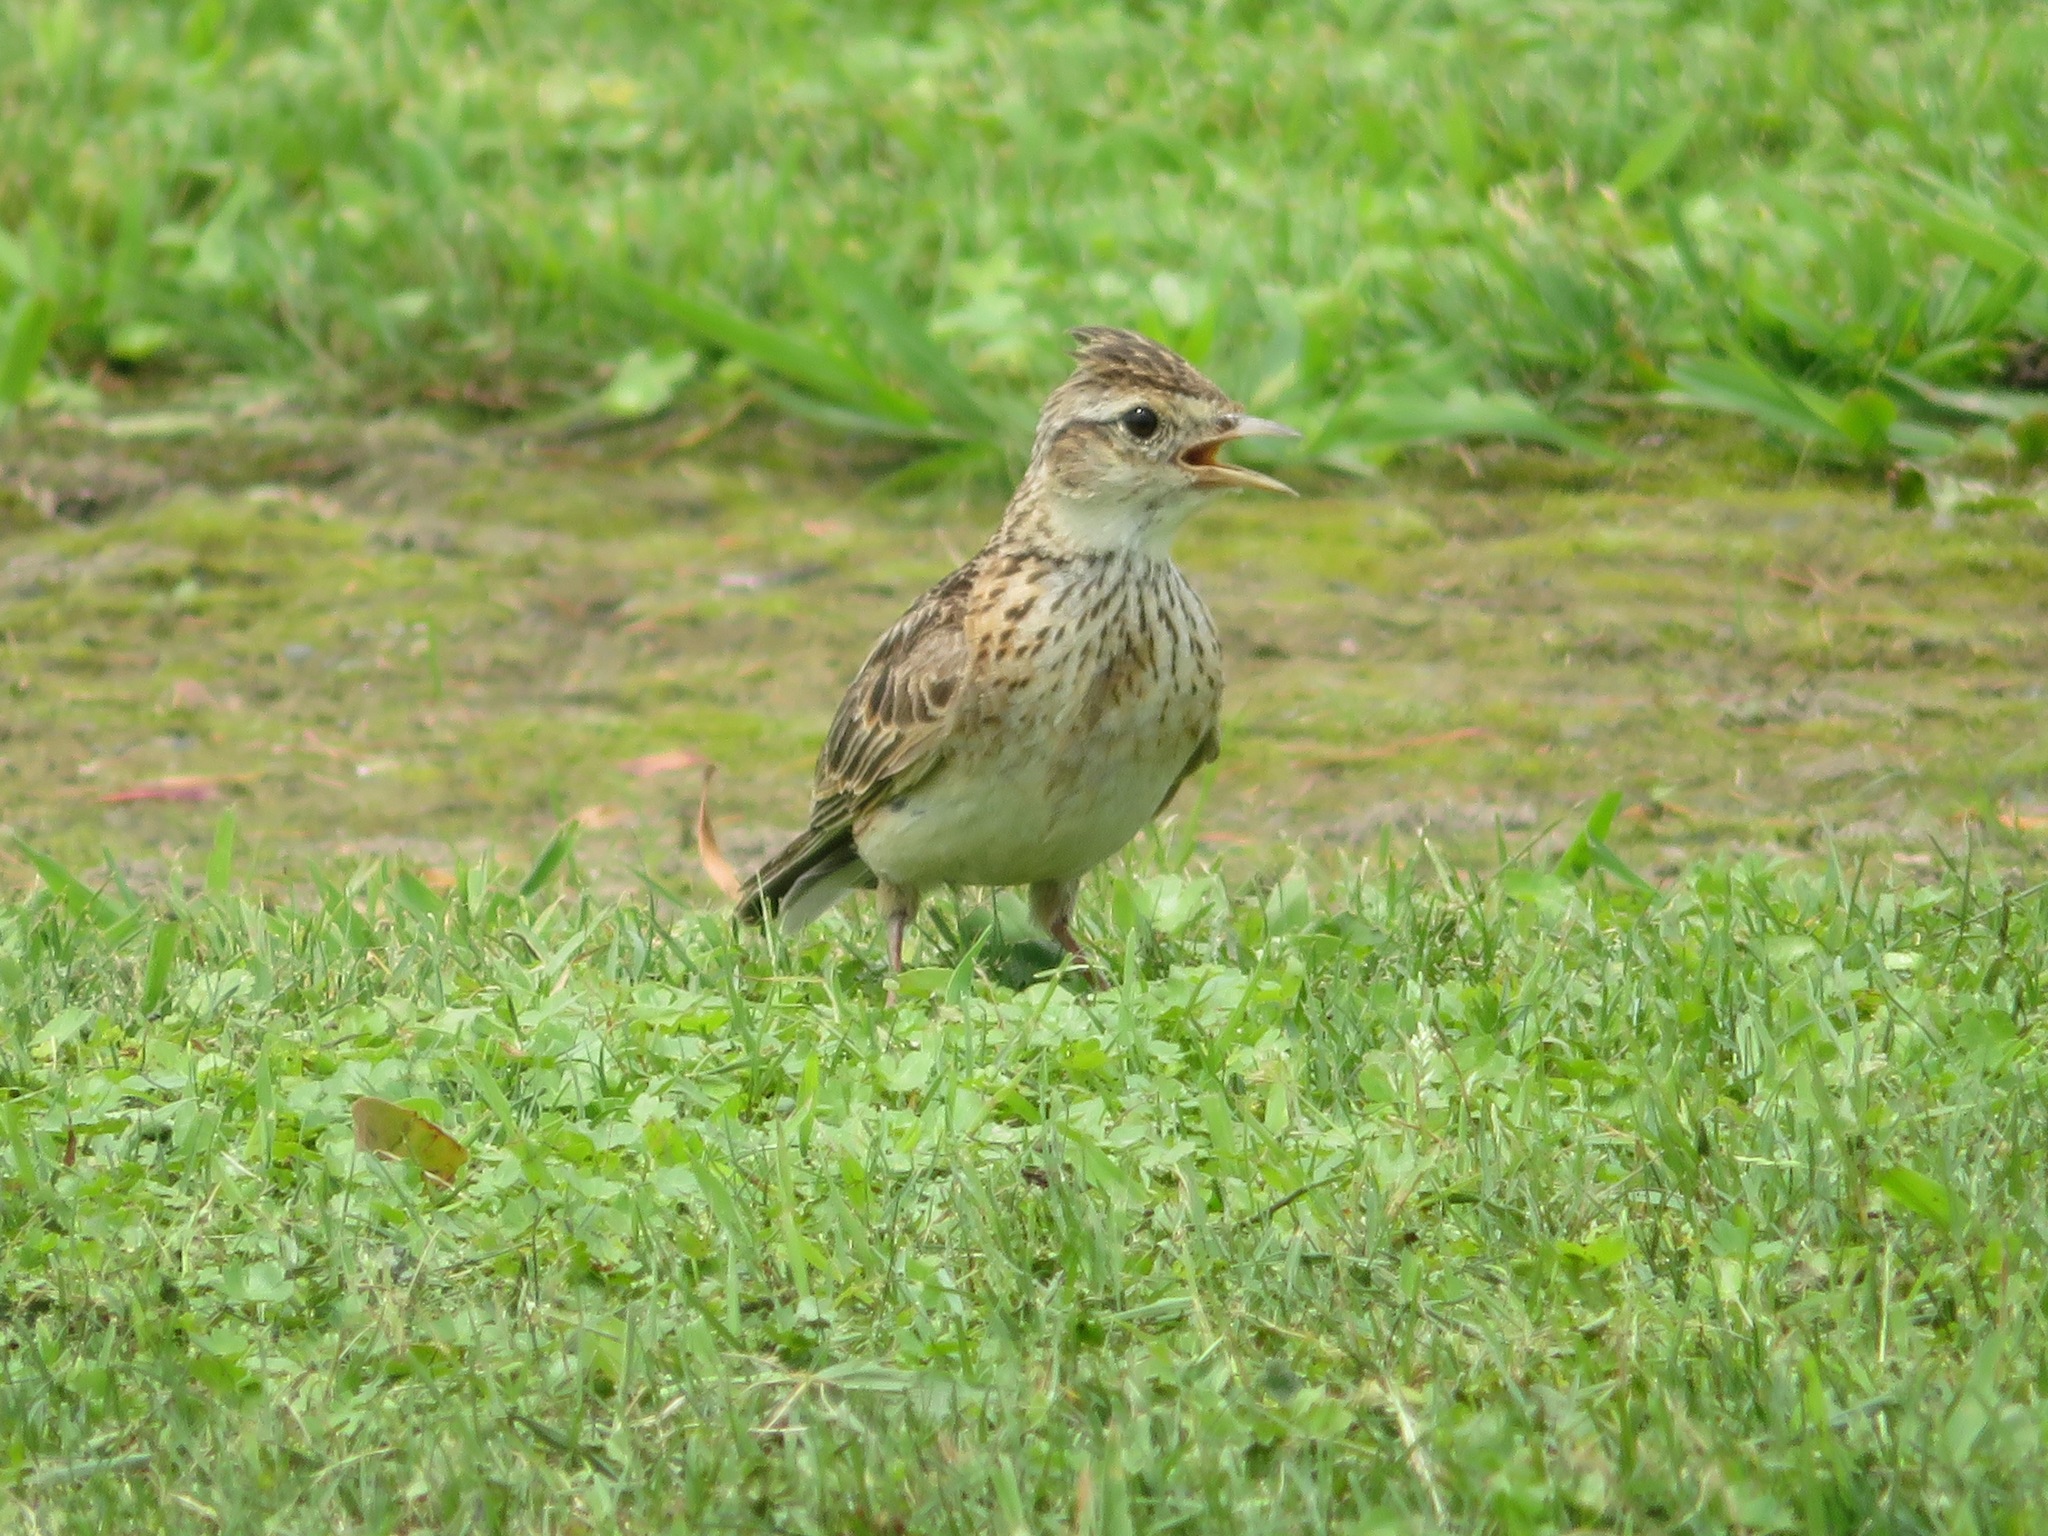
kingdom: Animalia
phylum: Chordata
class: Aves
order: Passeriformes
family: Alaudidae
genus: Alauda
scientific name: Alauda arvensis
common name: Eurasian skylark
